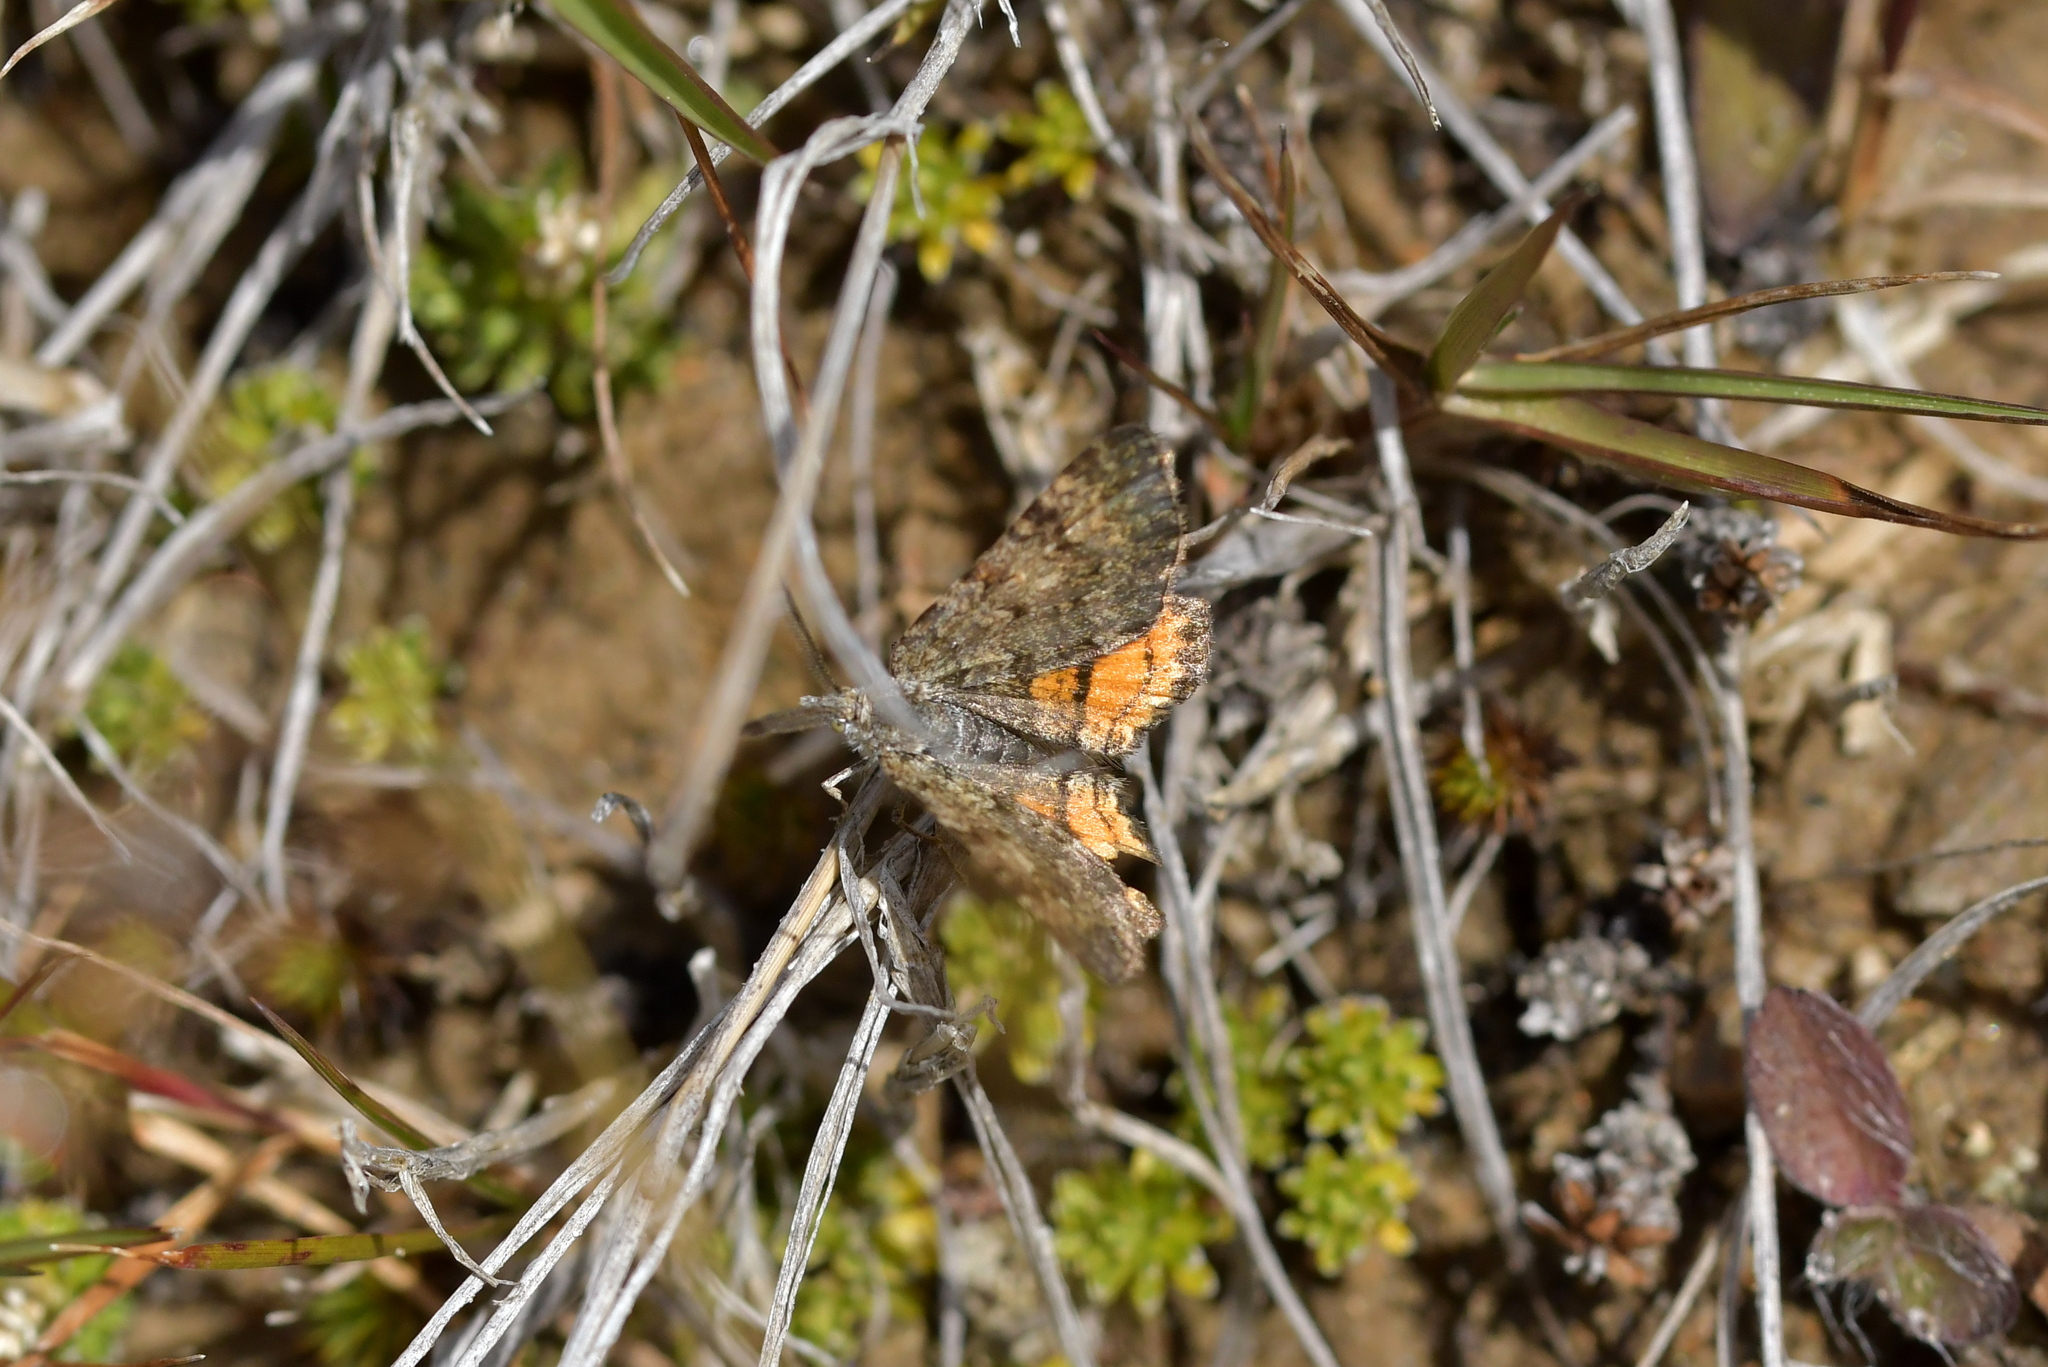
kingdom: Animalia
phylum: Arthropoda
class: Insecta
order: Lepidoptera
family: Geometridae
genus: Paranotoreas
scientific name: Paranotoreas brephosata
